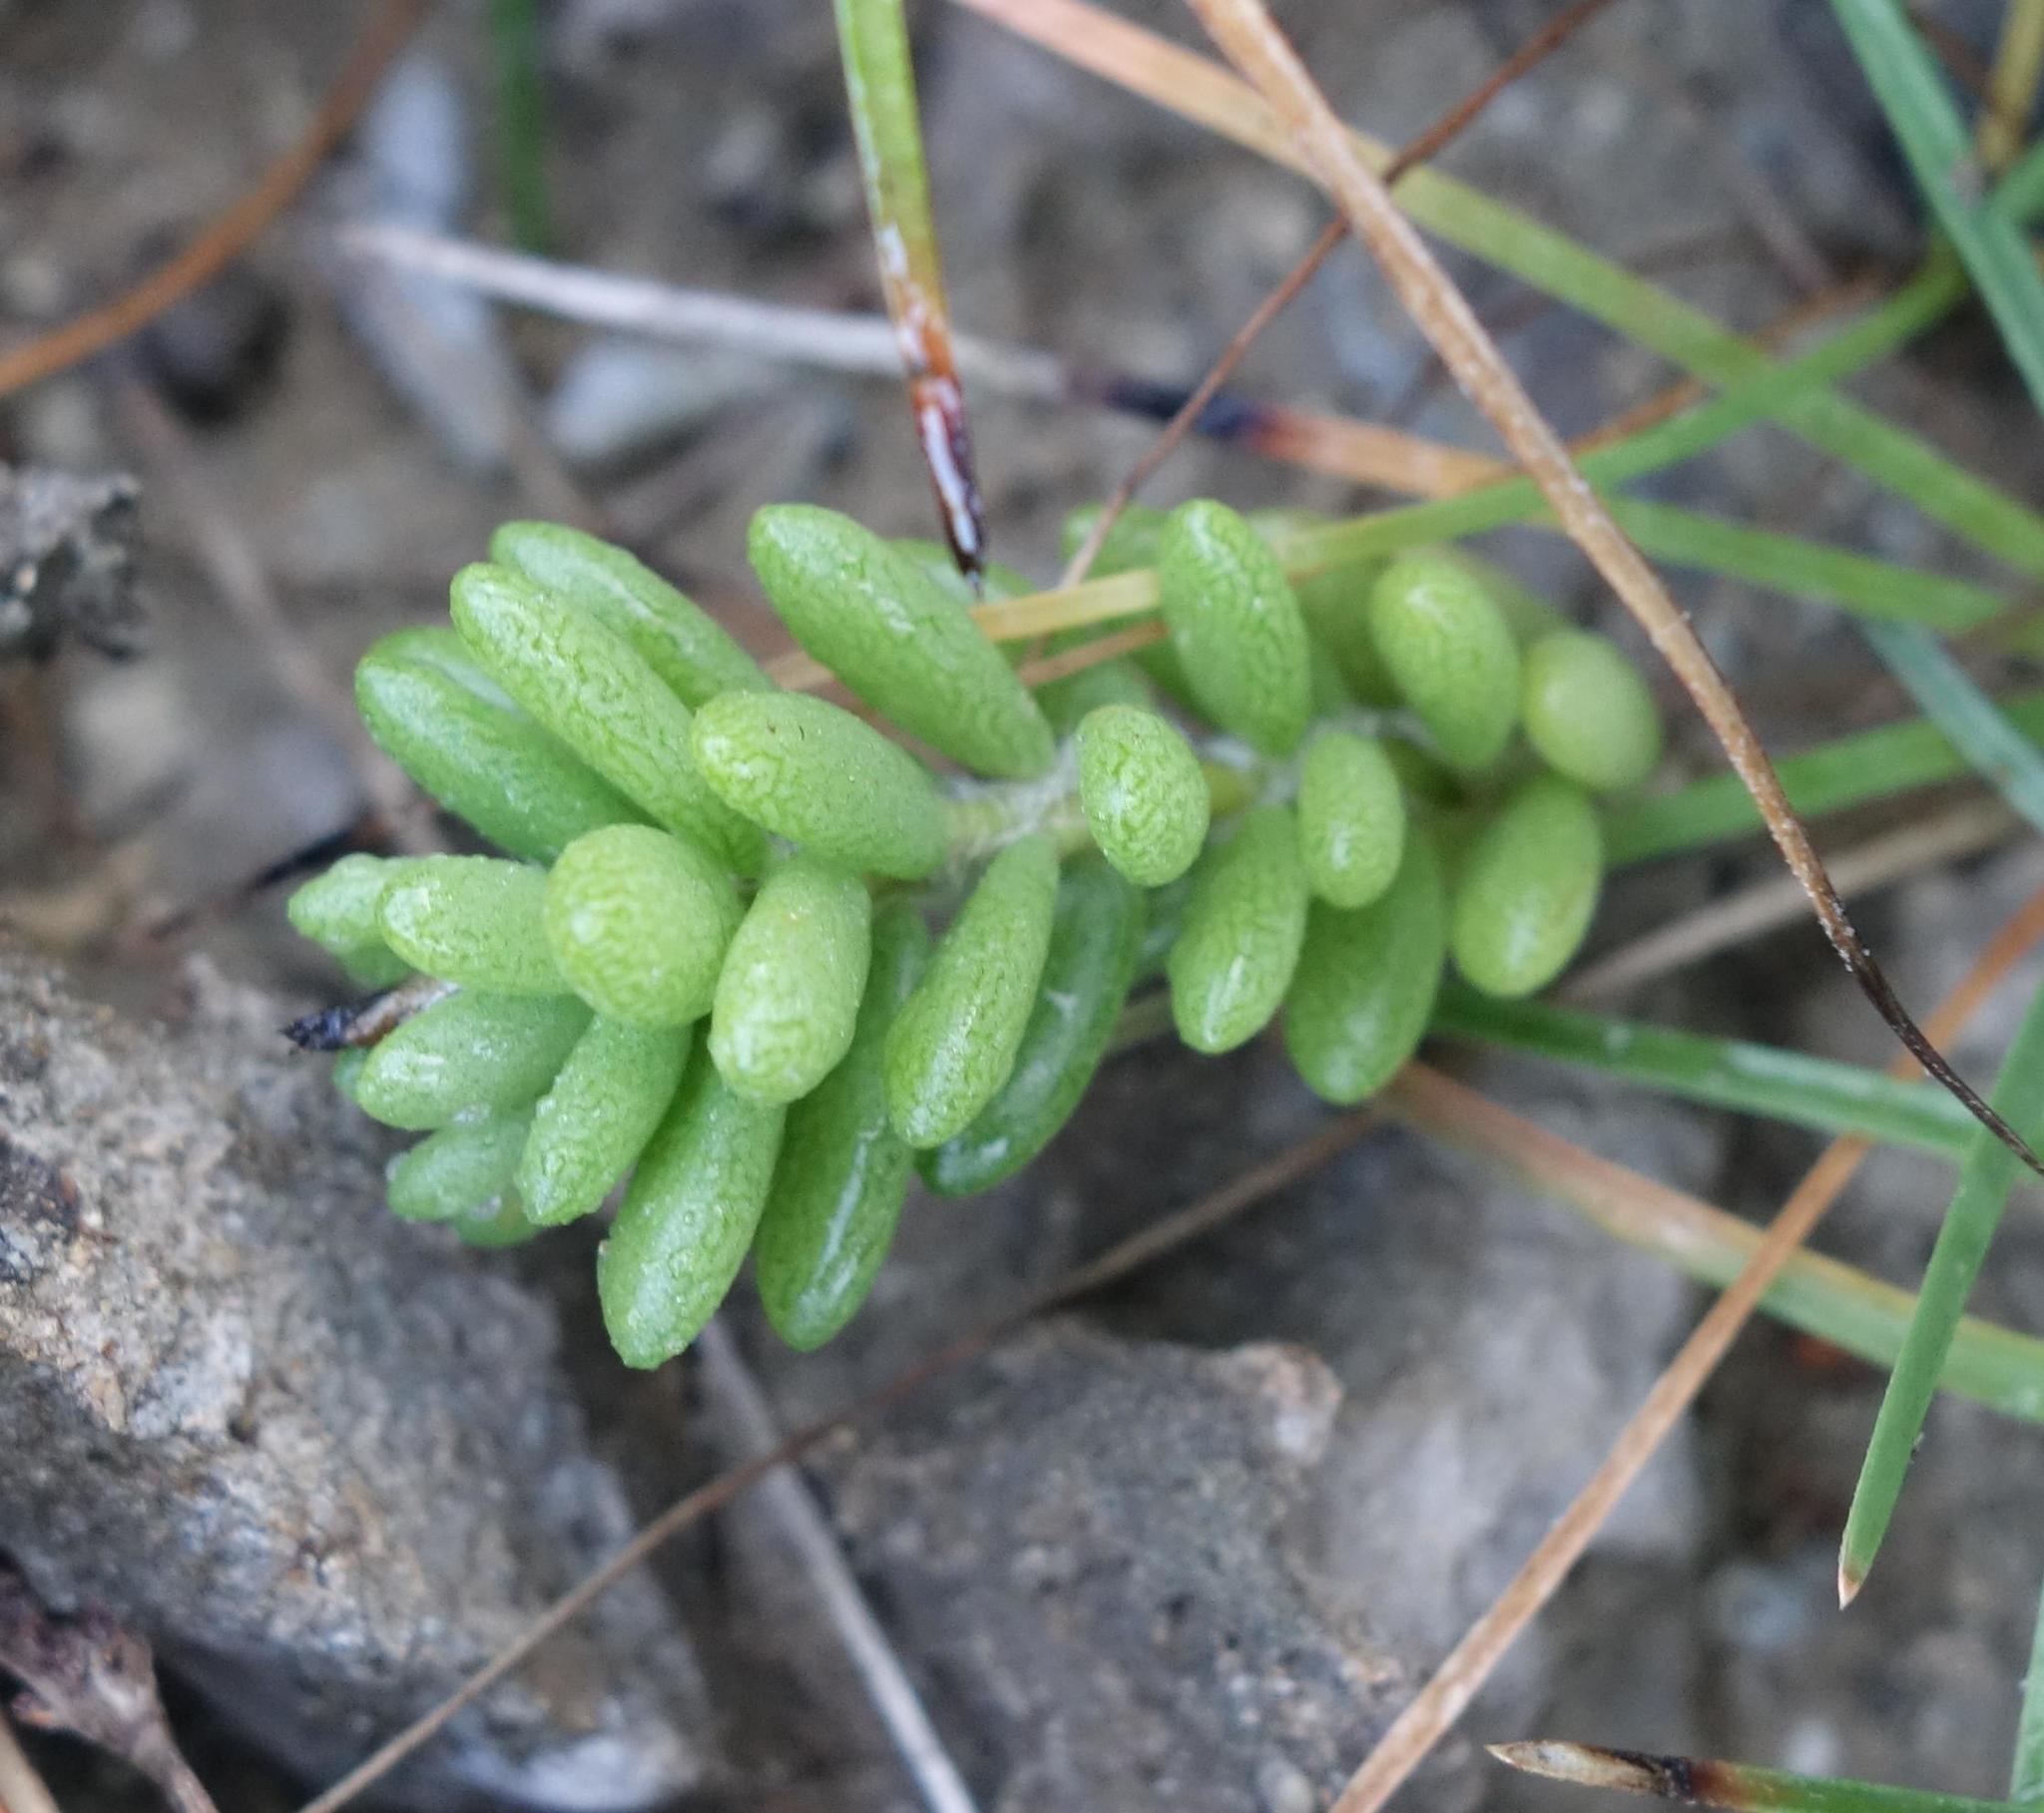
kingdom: Plantae
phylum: Tracheophyta
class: Magnoliopsida
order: Caryophyllales
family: Portulacaceae
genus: Portulaca
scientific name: Portulaca psammotropha
